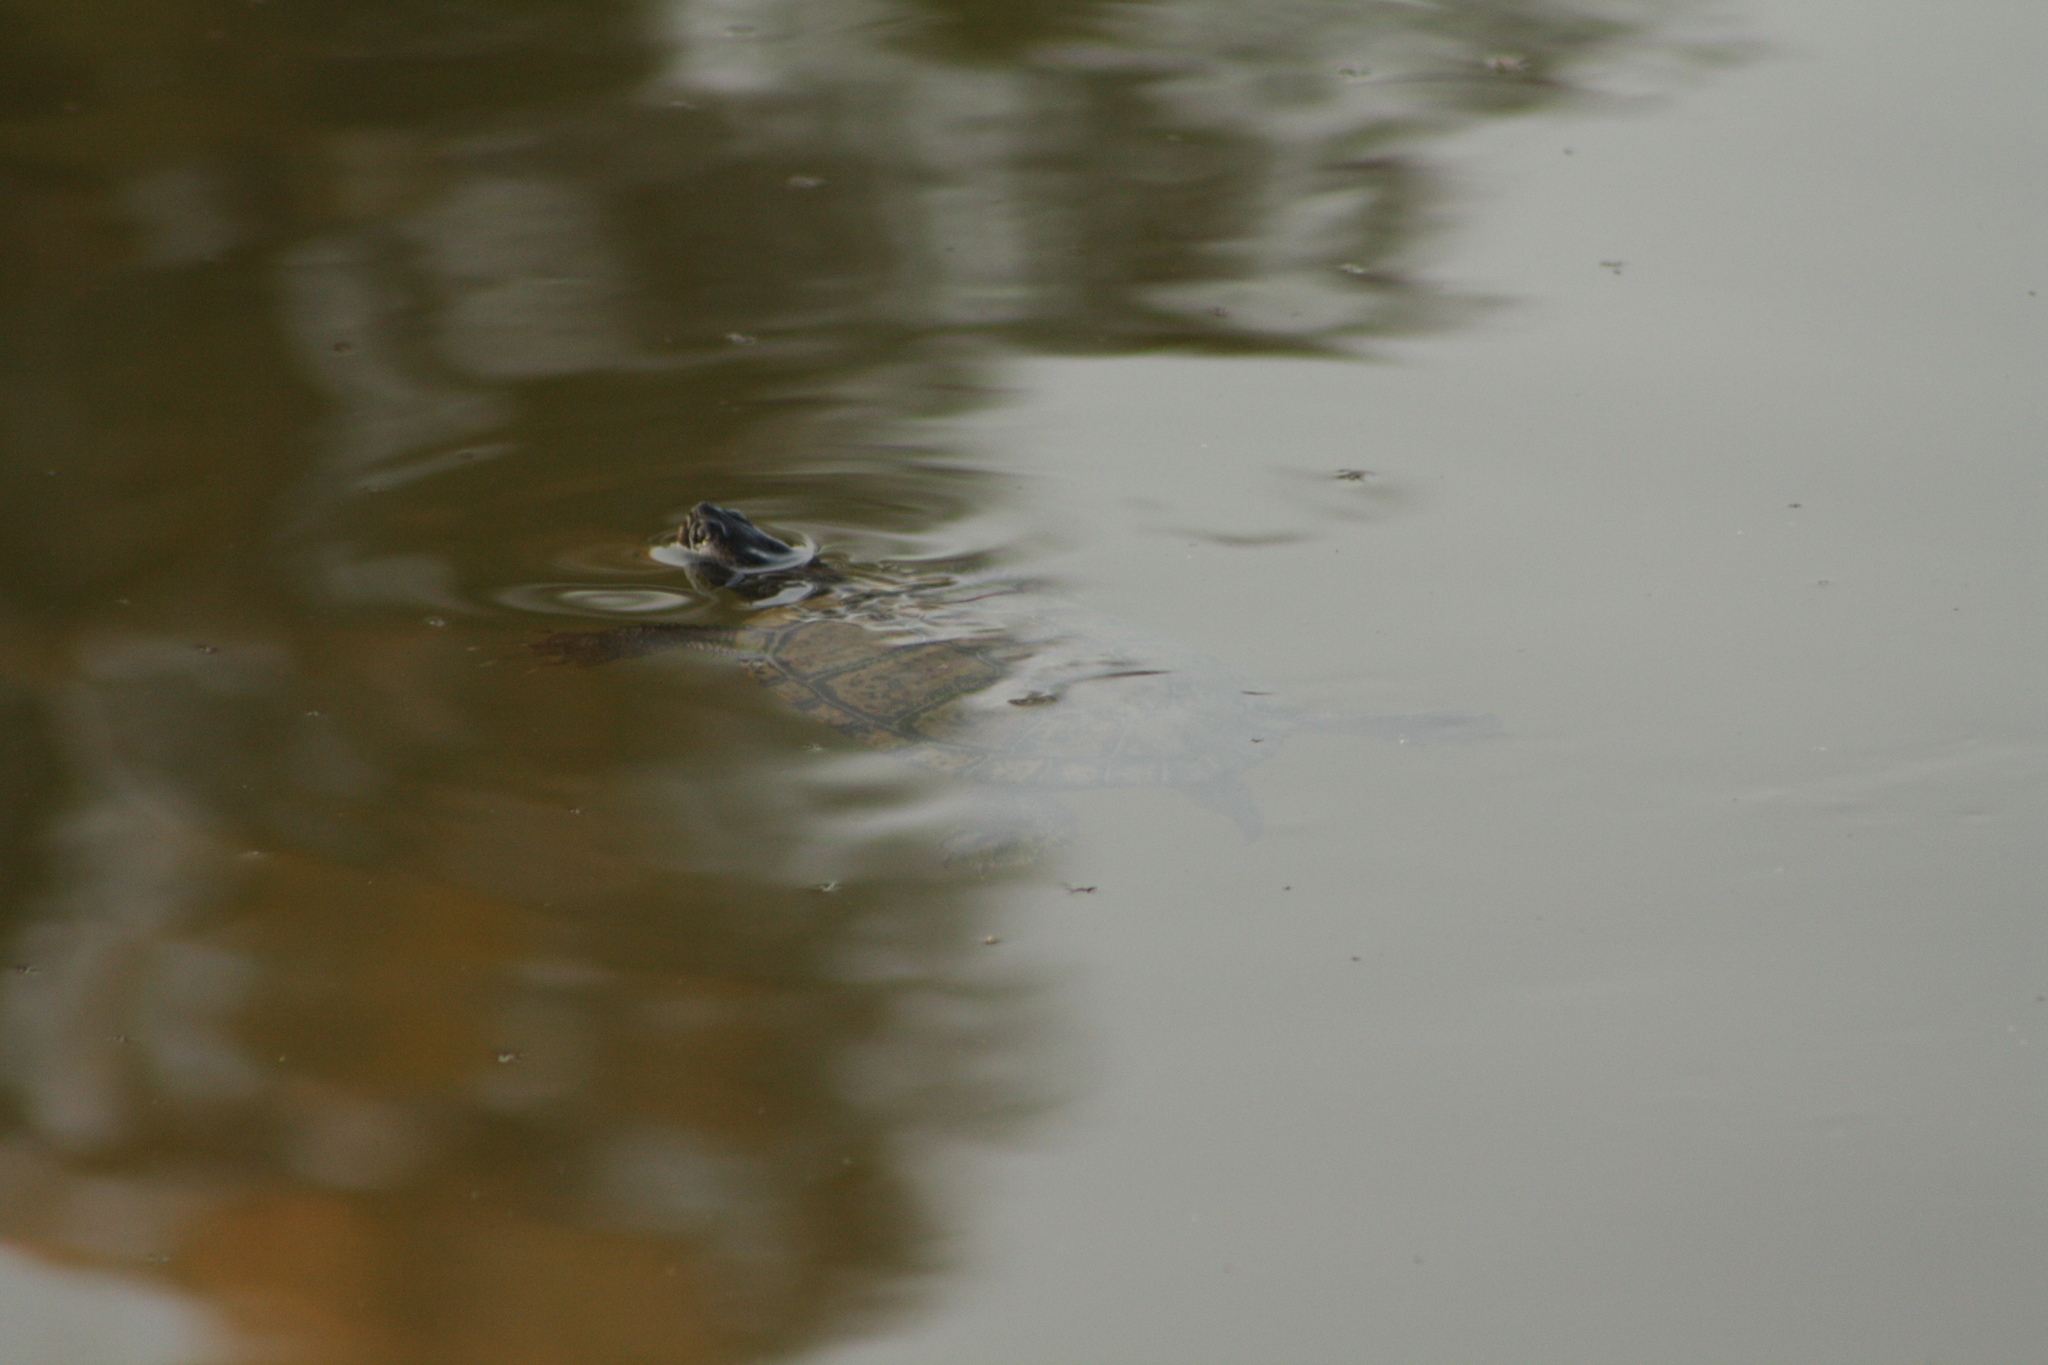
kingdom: Animalia
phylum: Chordata
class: Testudines
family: Emydidae
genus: Trachemys
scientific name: Trachemys scripta
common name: Slider
